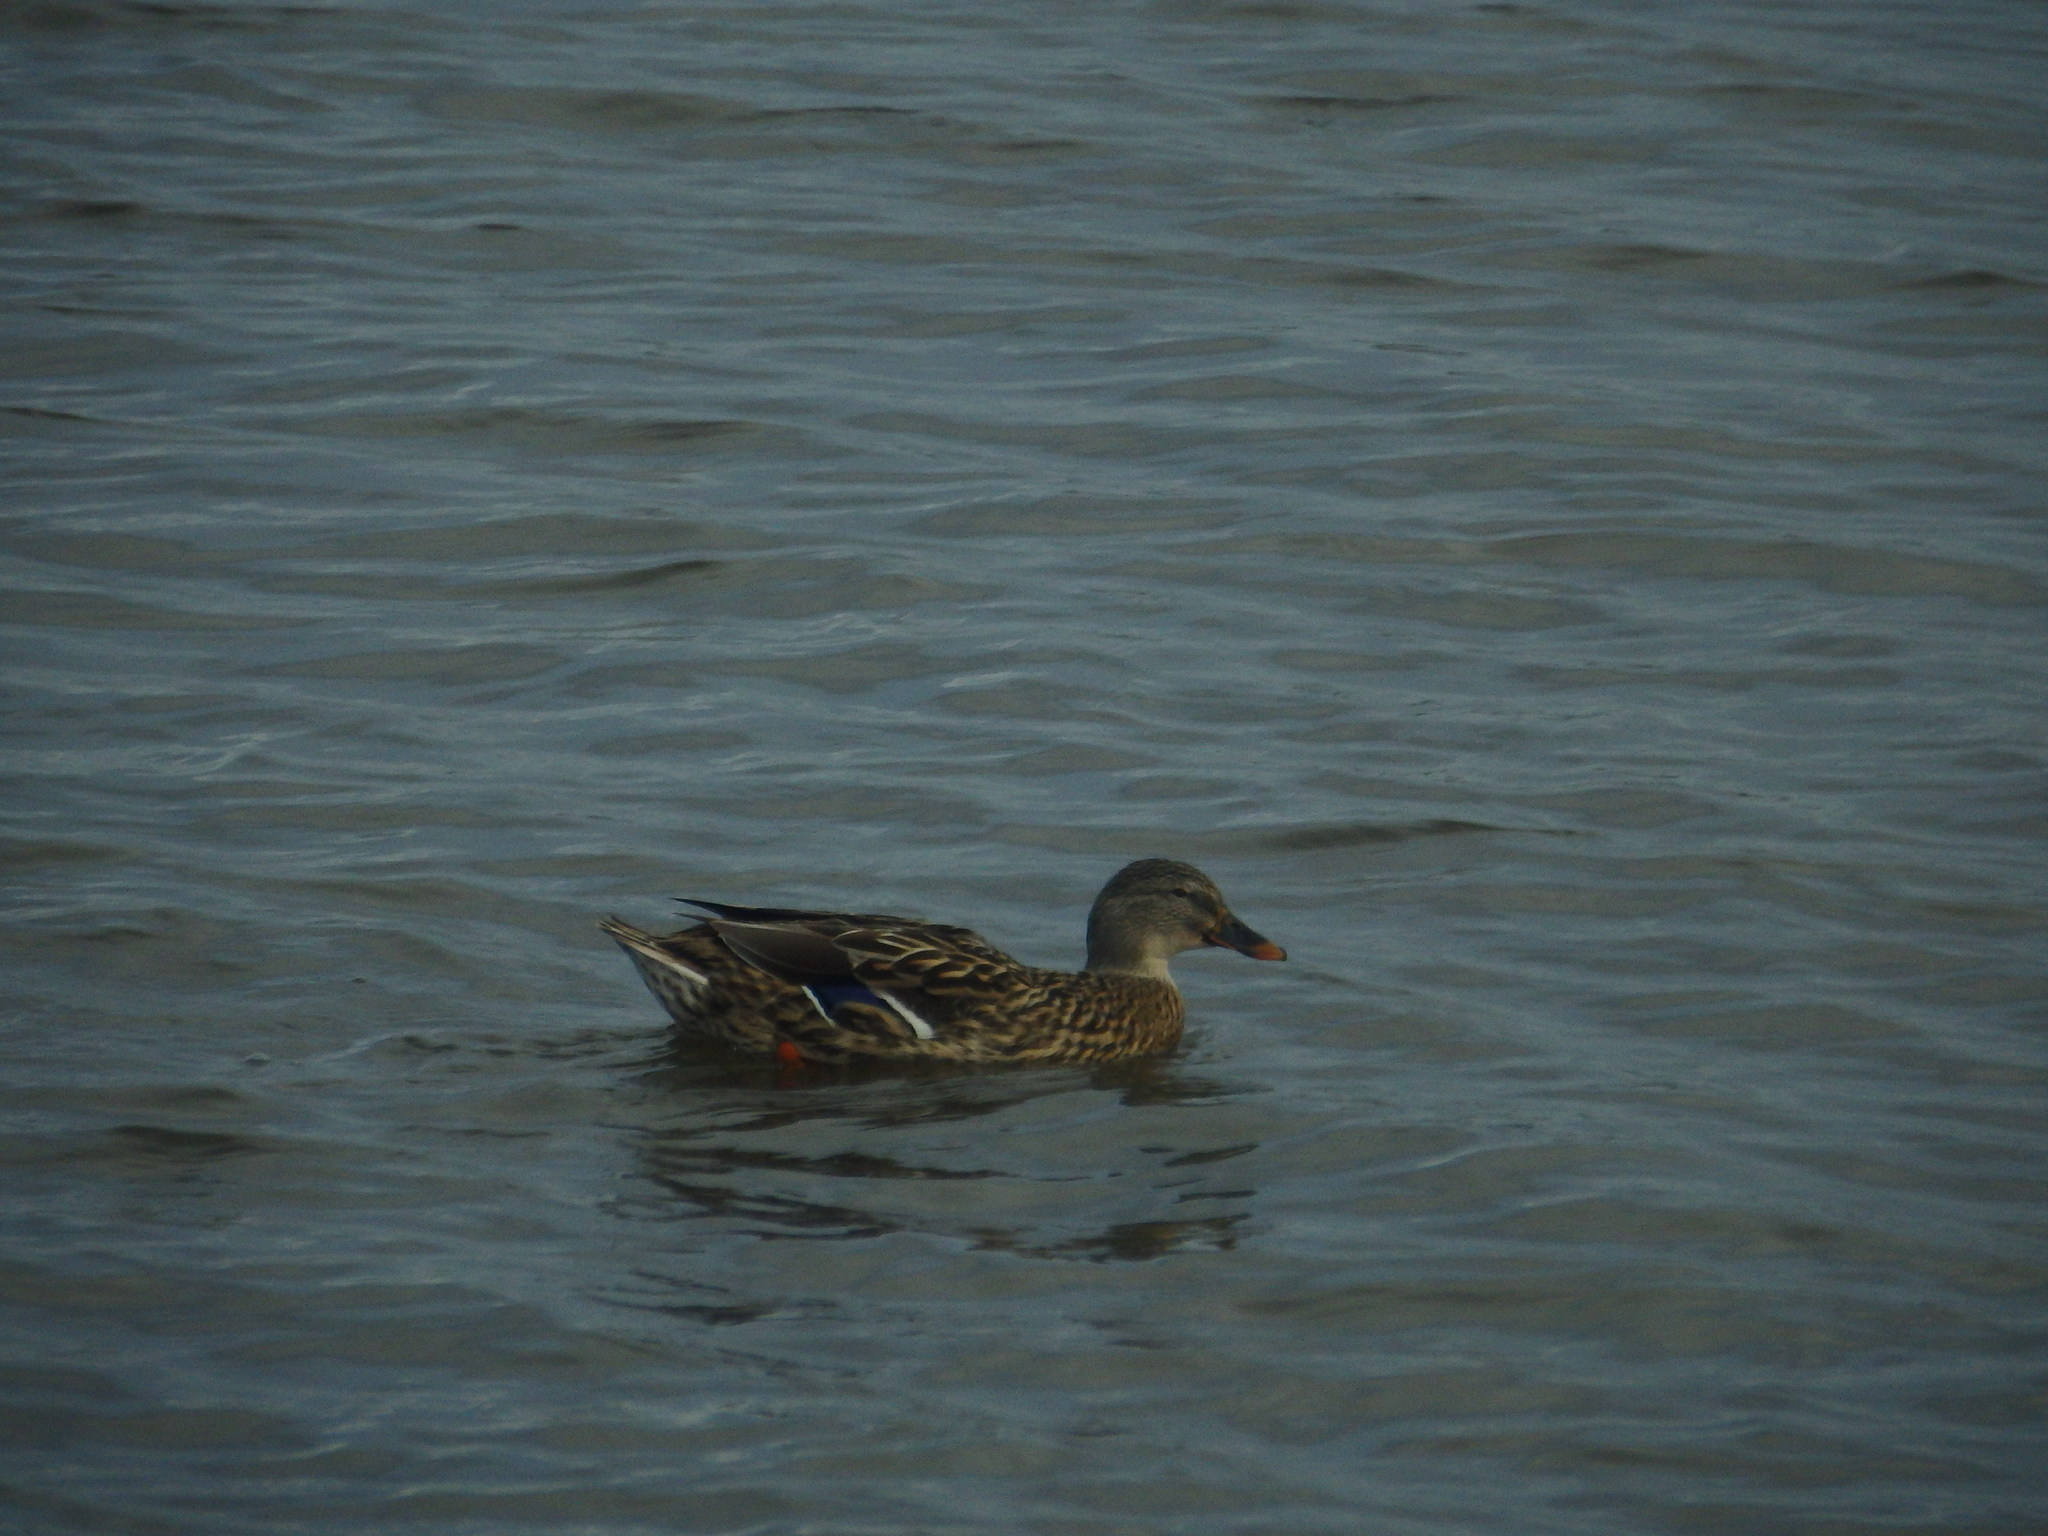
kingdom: Animalia
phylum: Chordata
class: Aves
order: Anseriformes
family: Anatidae
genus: Anas
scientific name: Anas platyrhynchos
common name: Mallard
